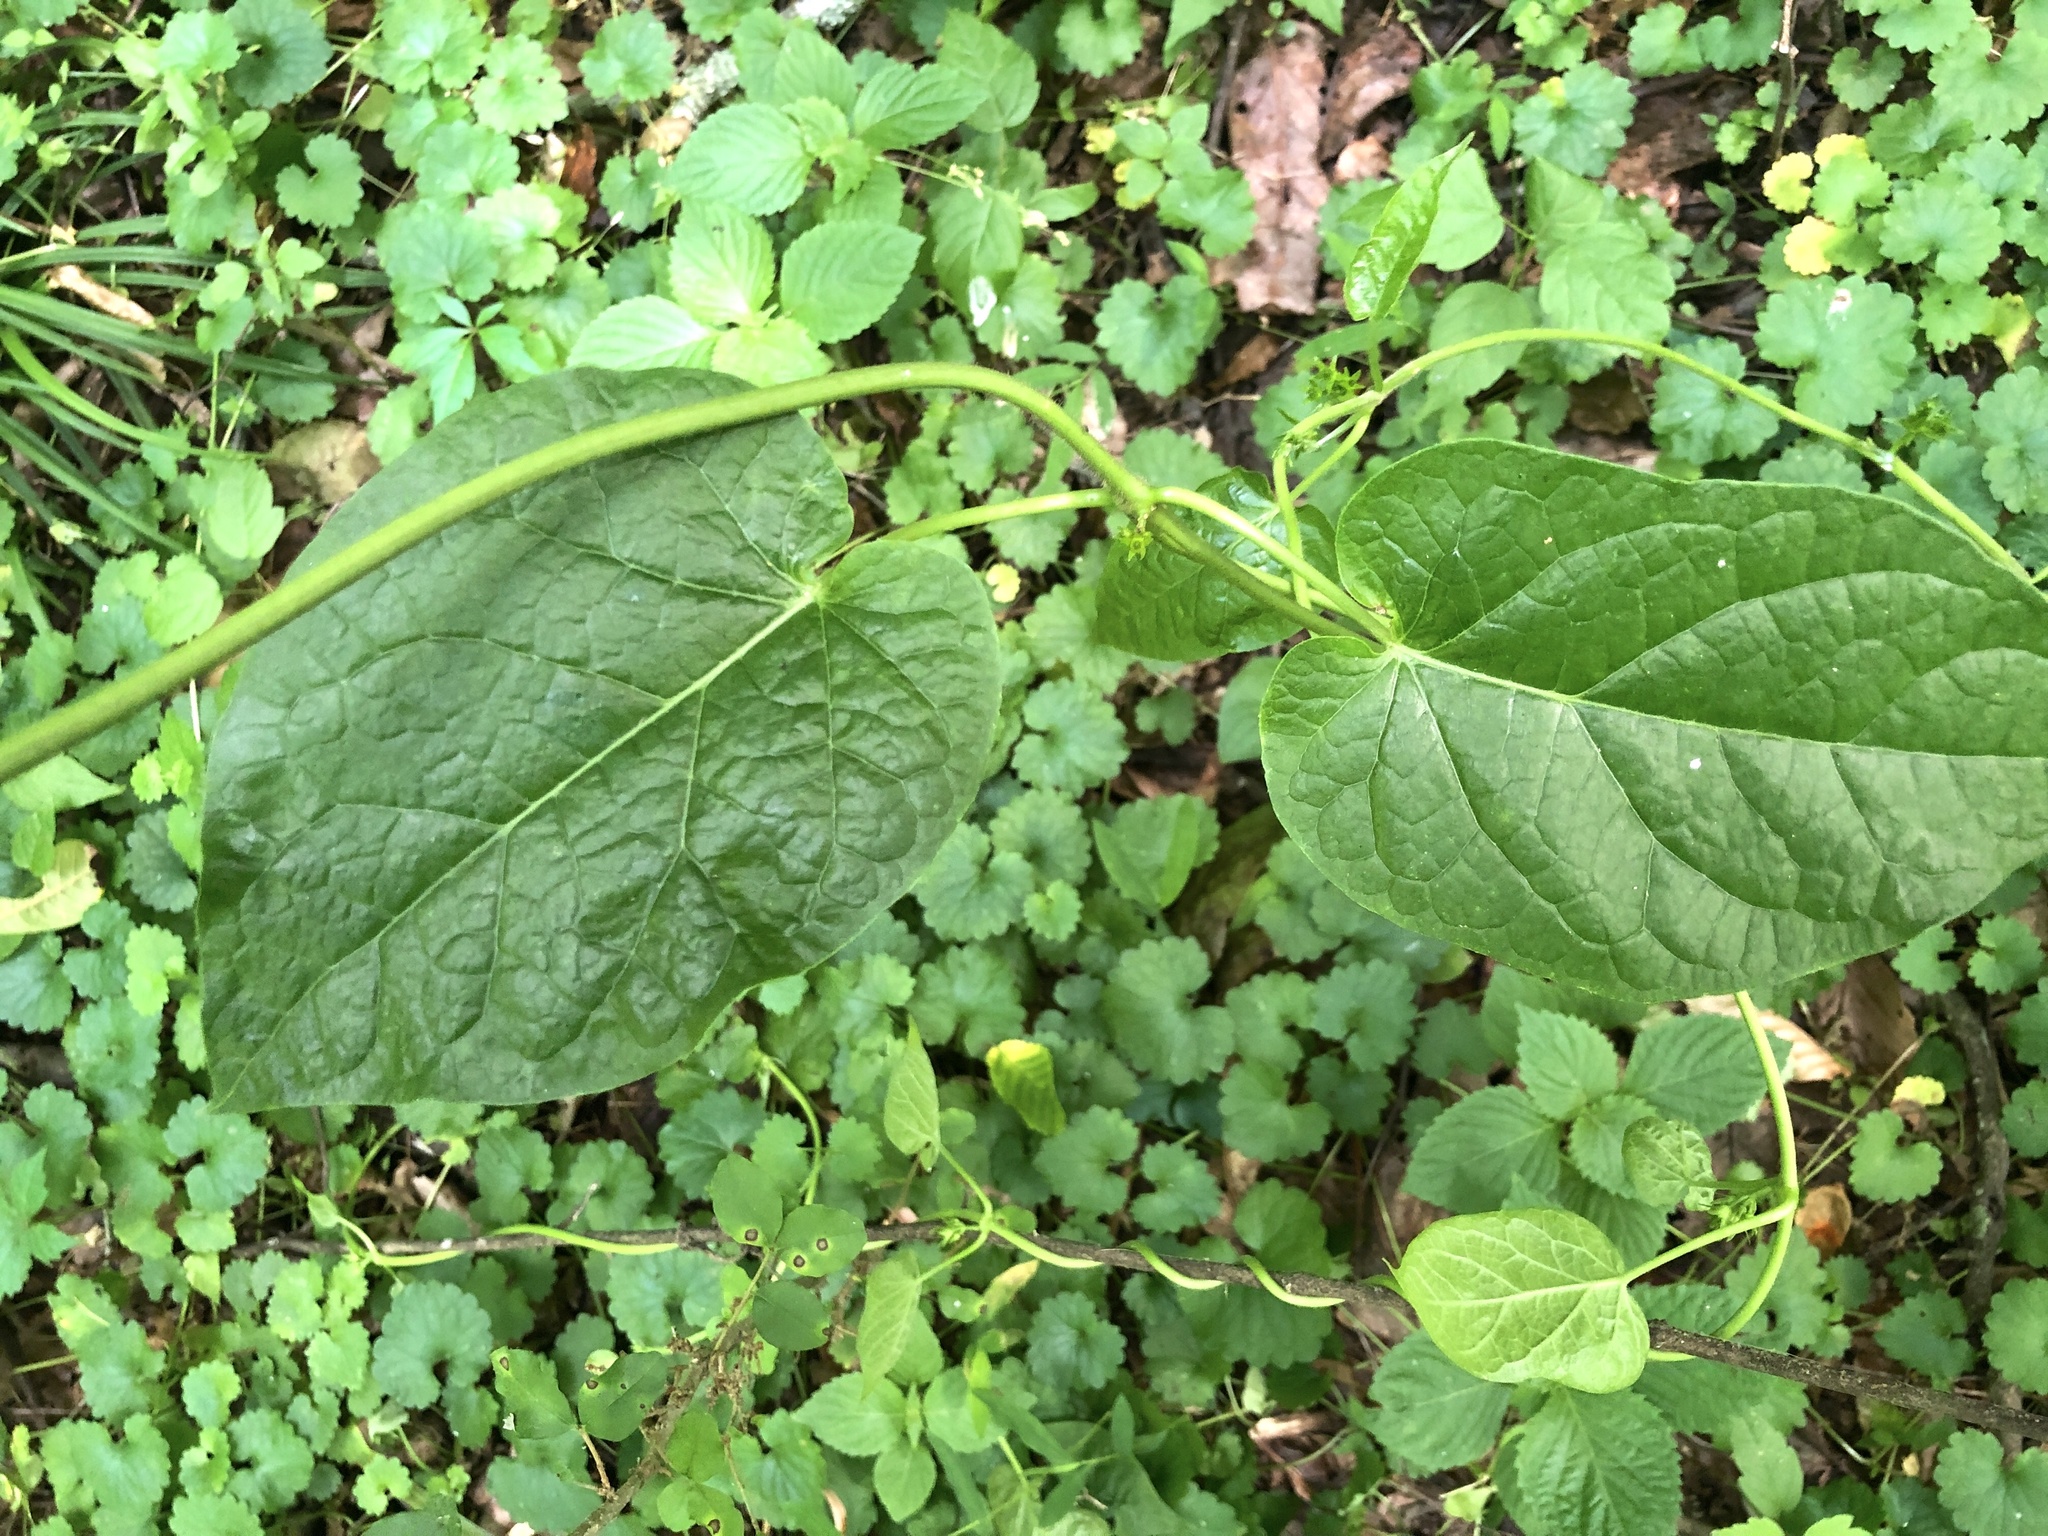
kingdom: Plantae
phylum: Tracheophyta
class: Magnoliopsida
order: Gentianales
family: Apocynaceae
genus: Gonolobus
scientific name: Gonolobus suberosus
